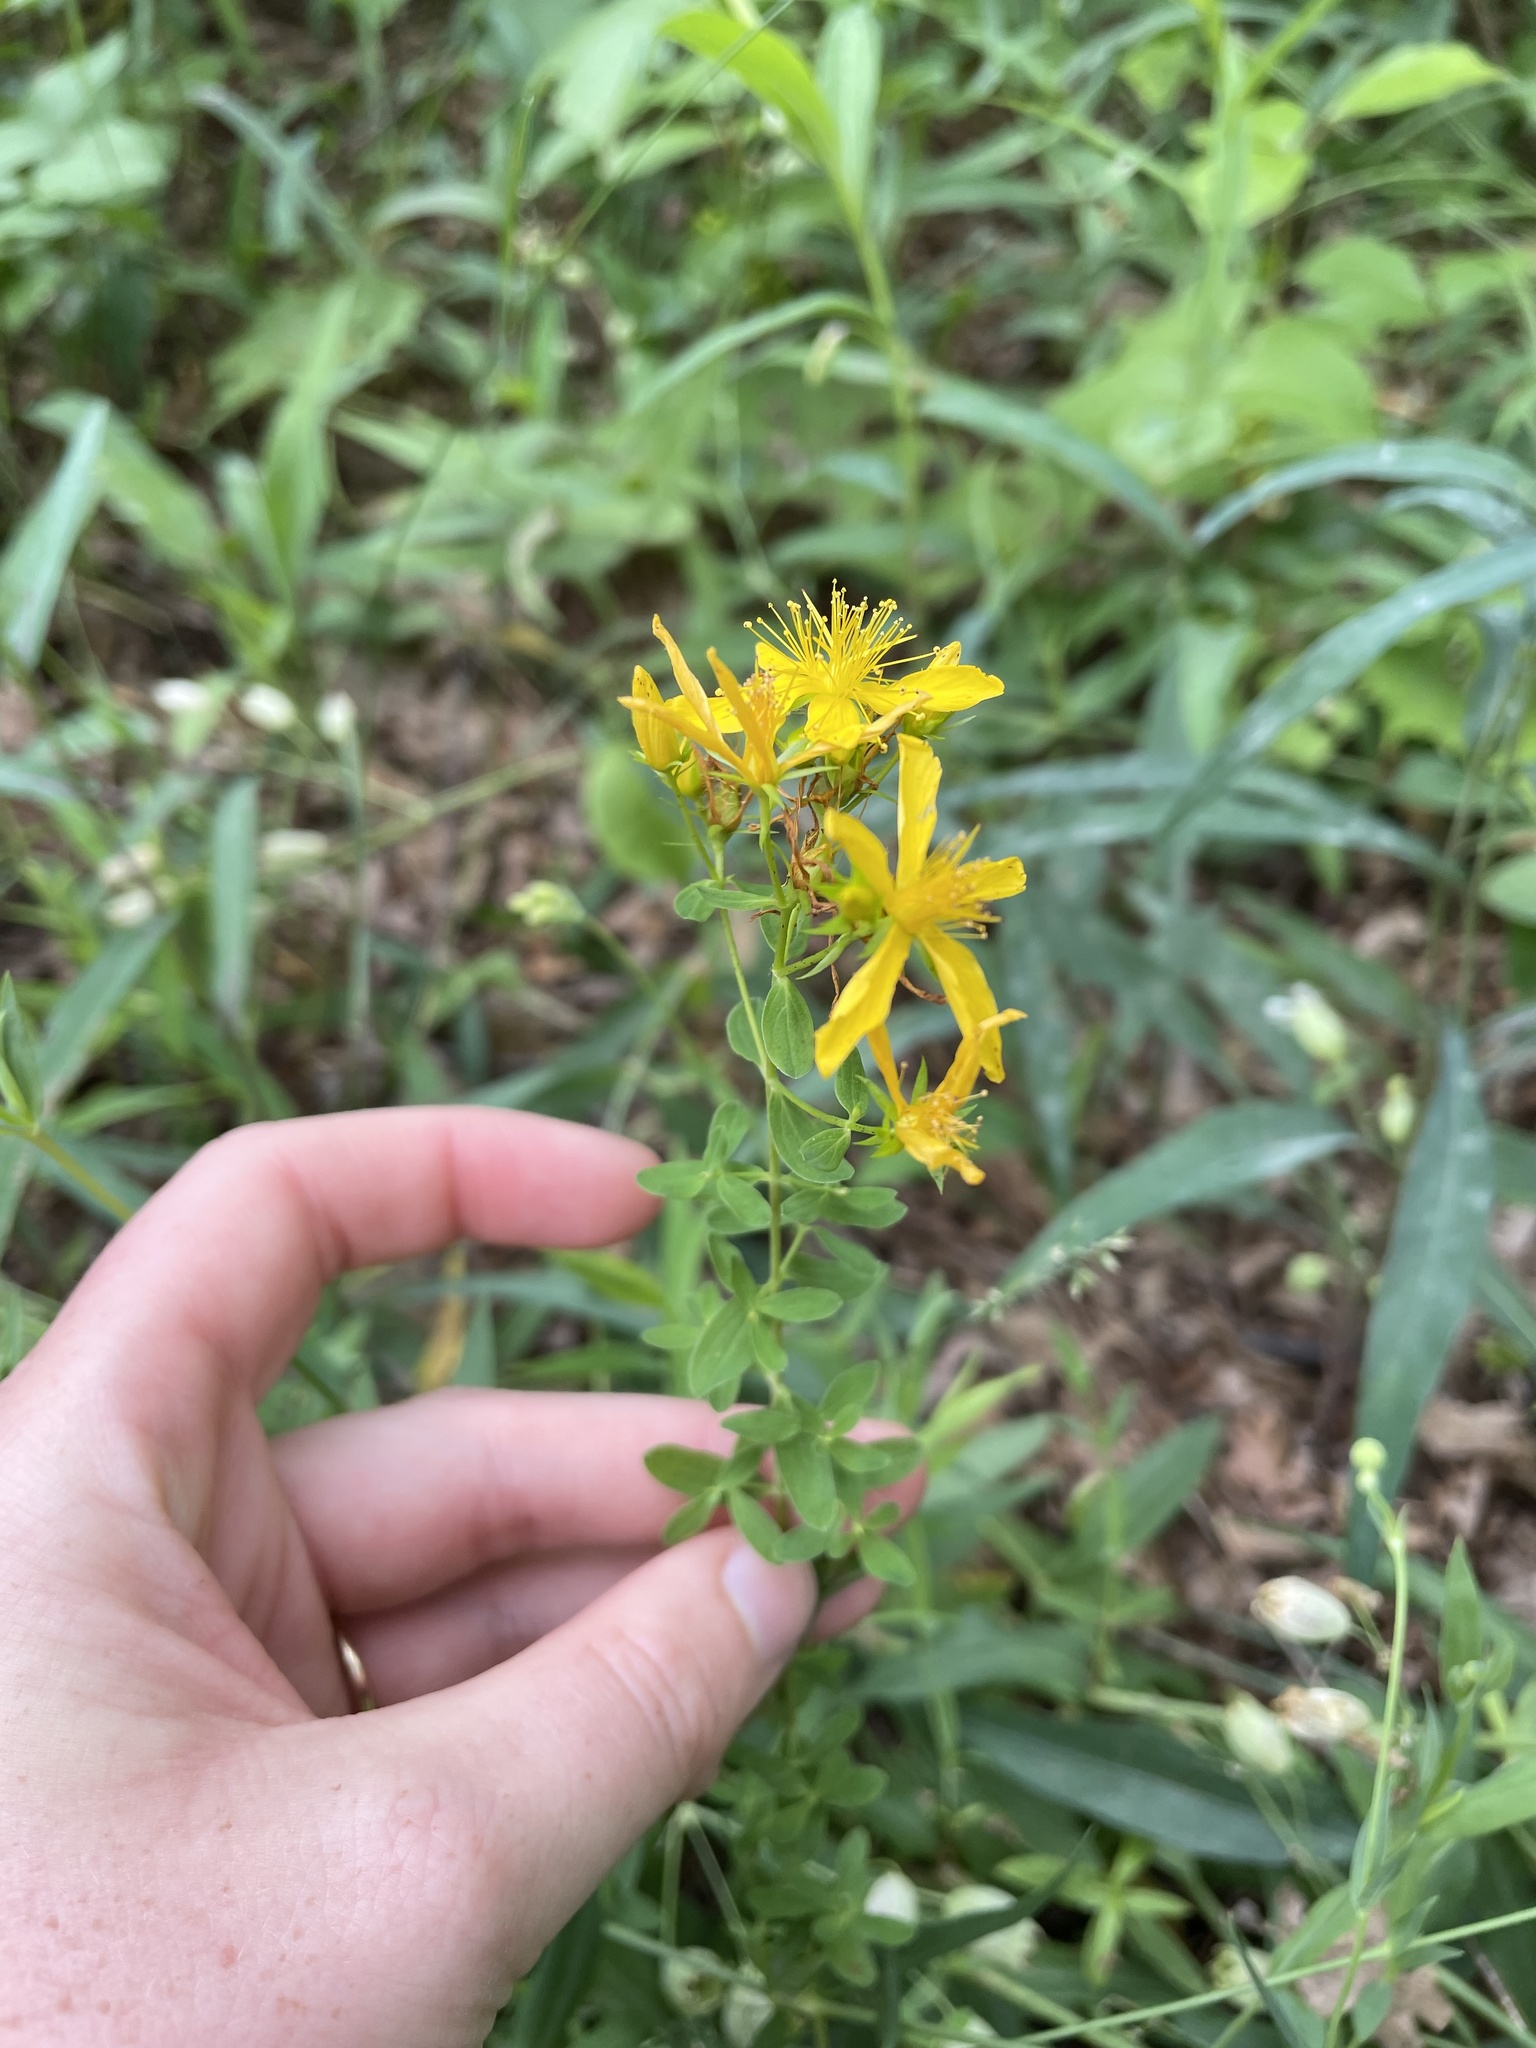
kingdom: Plantae
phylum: Tracheophyta
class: Magnoliopsida
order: Malpighiales
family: Hypericaceae
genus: Hypericum
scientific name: Hypericum perforatum
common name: Common st. johnswort
